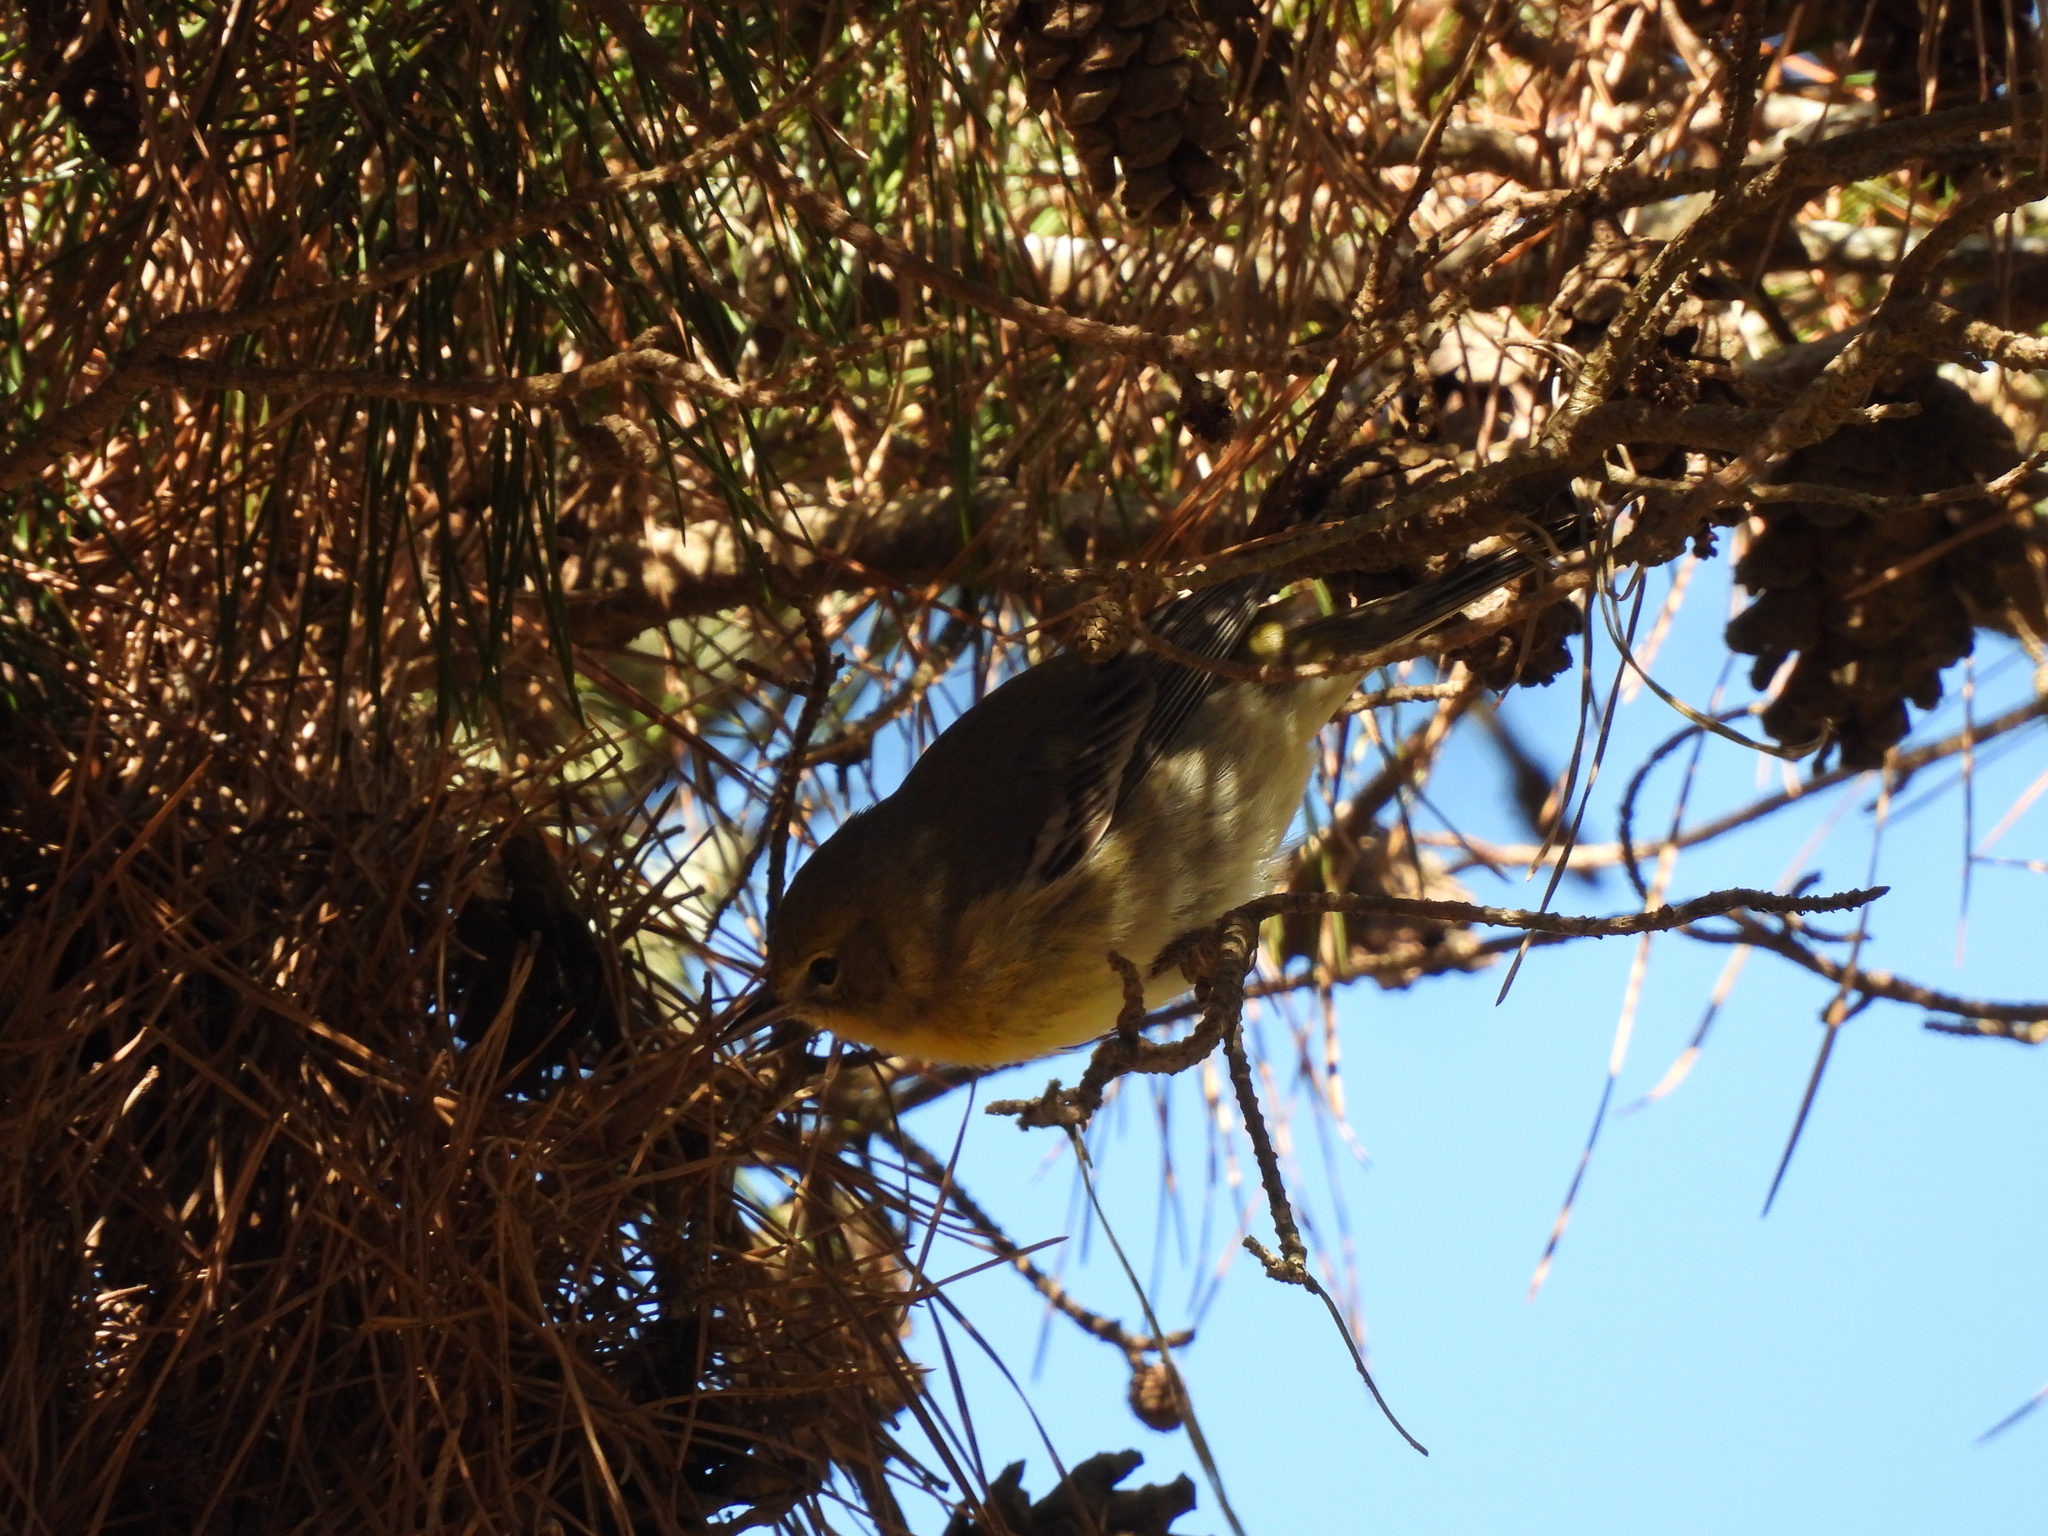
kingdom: Animalia
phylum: Chordata
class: Aves
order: Passeriformes
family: Parulidae
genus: Setophaga
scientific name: Setophaga pinus
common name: Pine warbler
